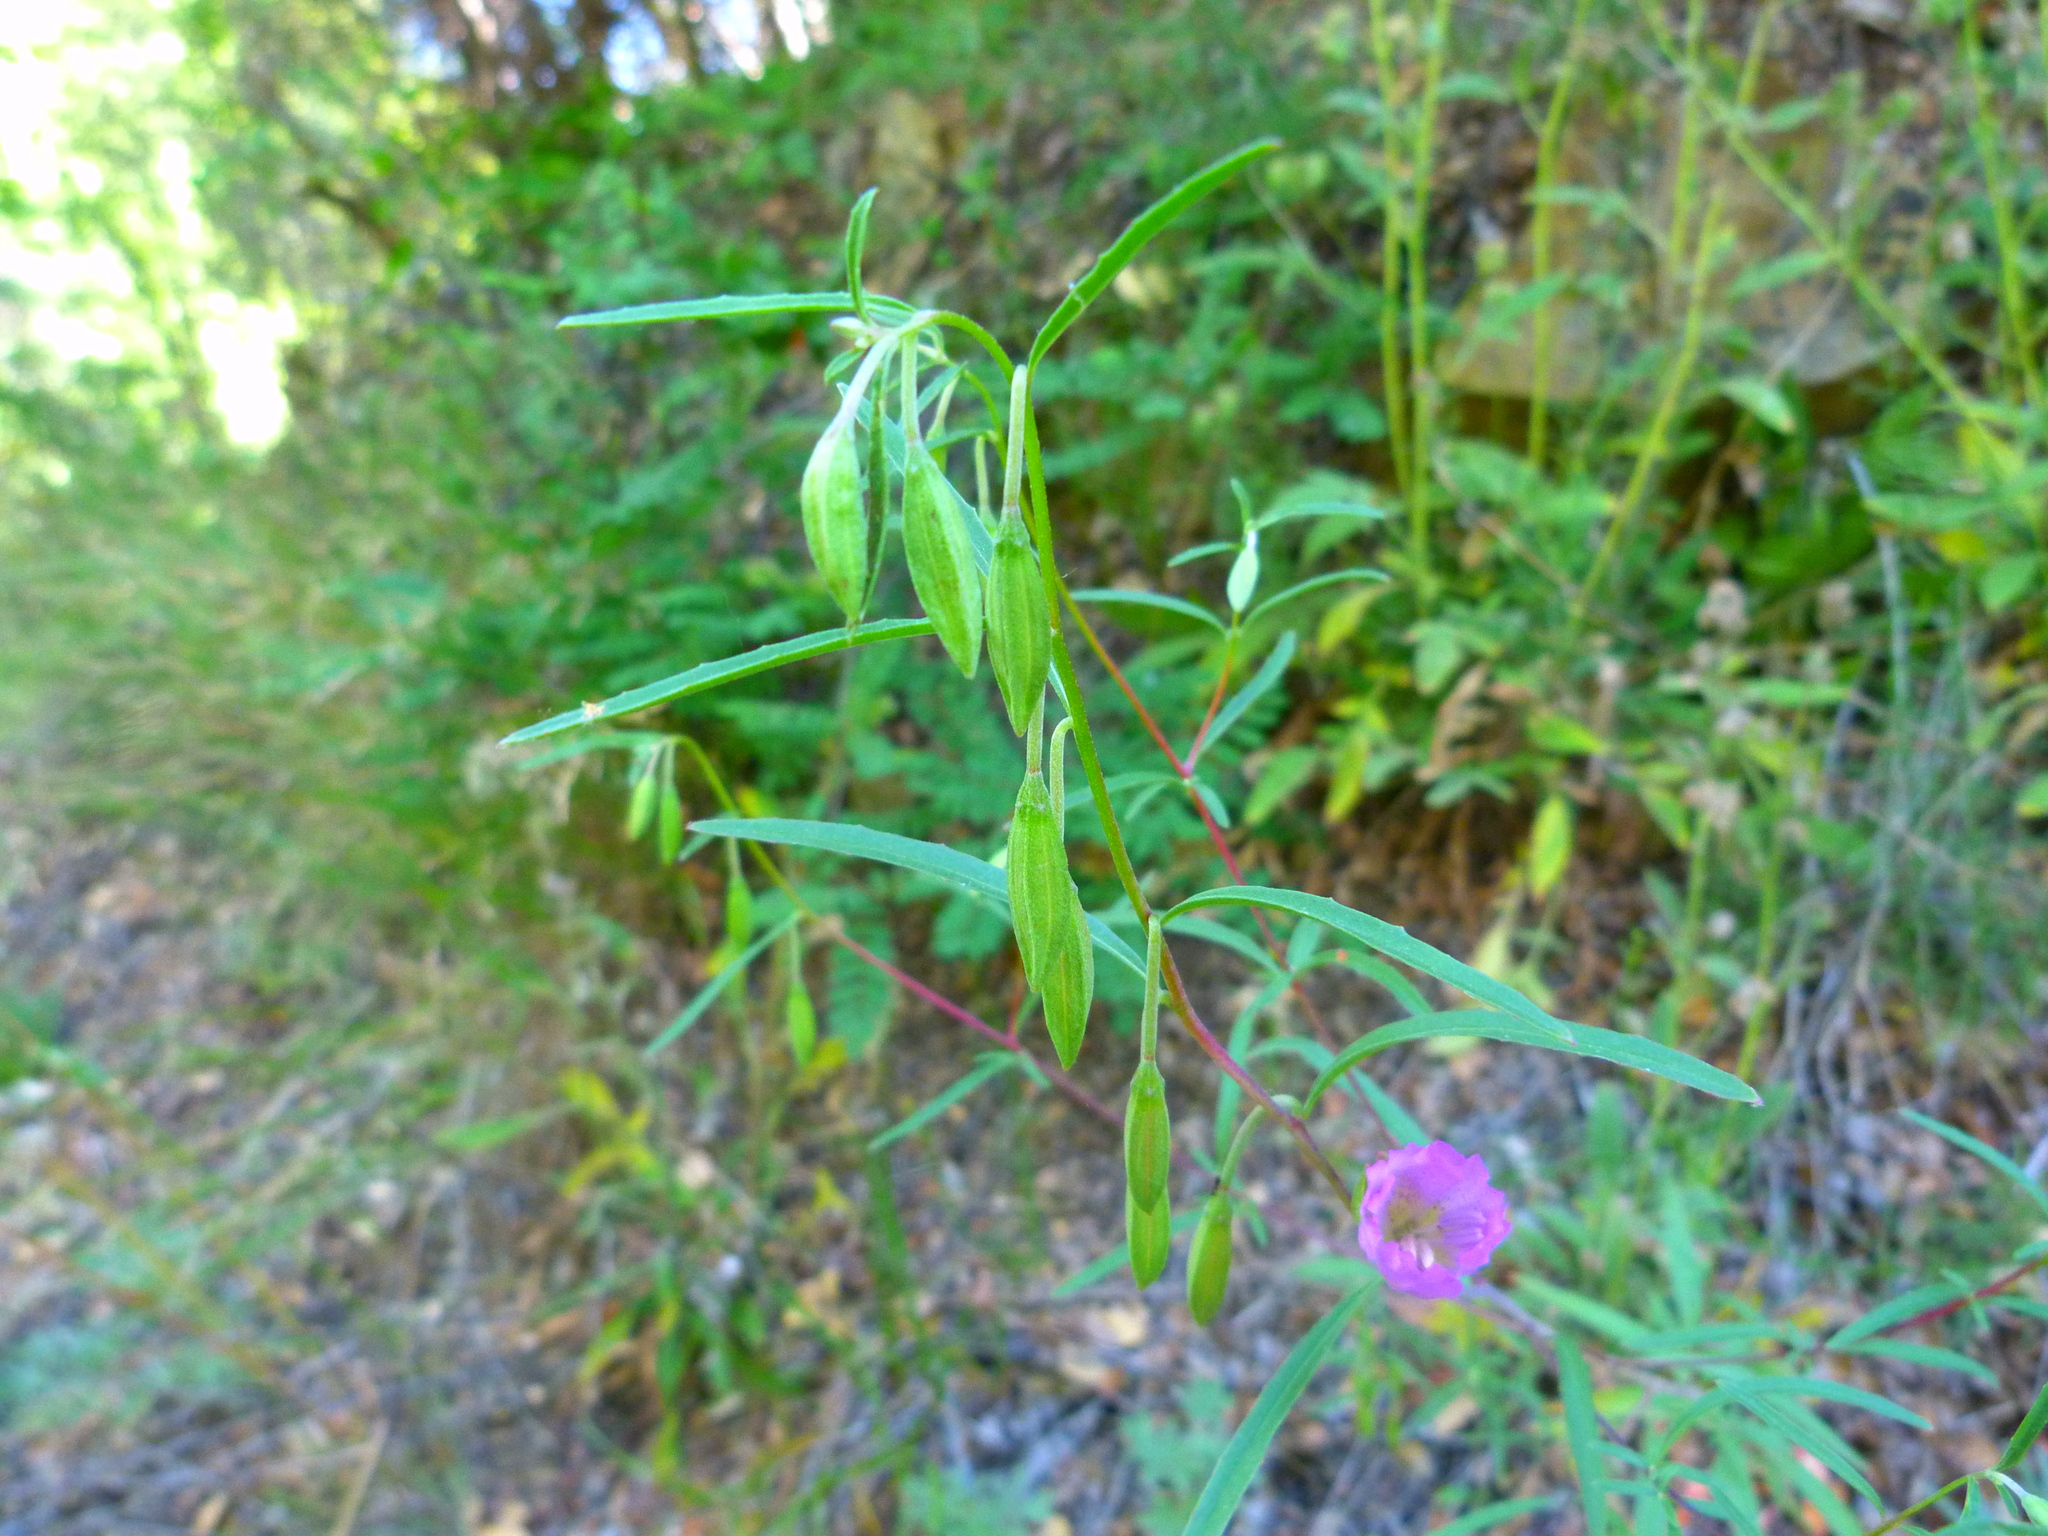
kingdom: Plantae
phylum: Tracheophyta
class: Magnoliopsida
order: Myrtales
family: Onagraceae
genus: Clarkia
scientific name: Clarkia bottae
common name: Punch-bowl godetia
